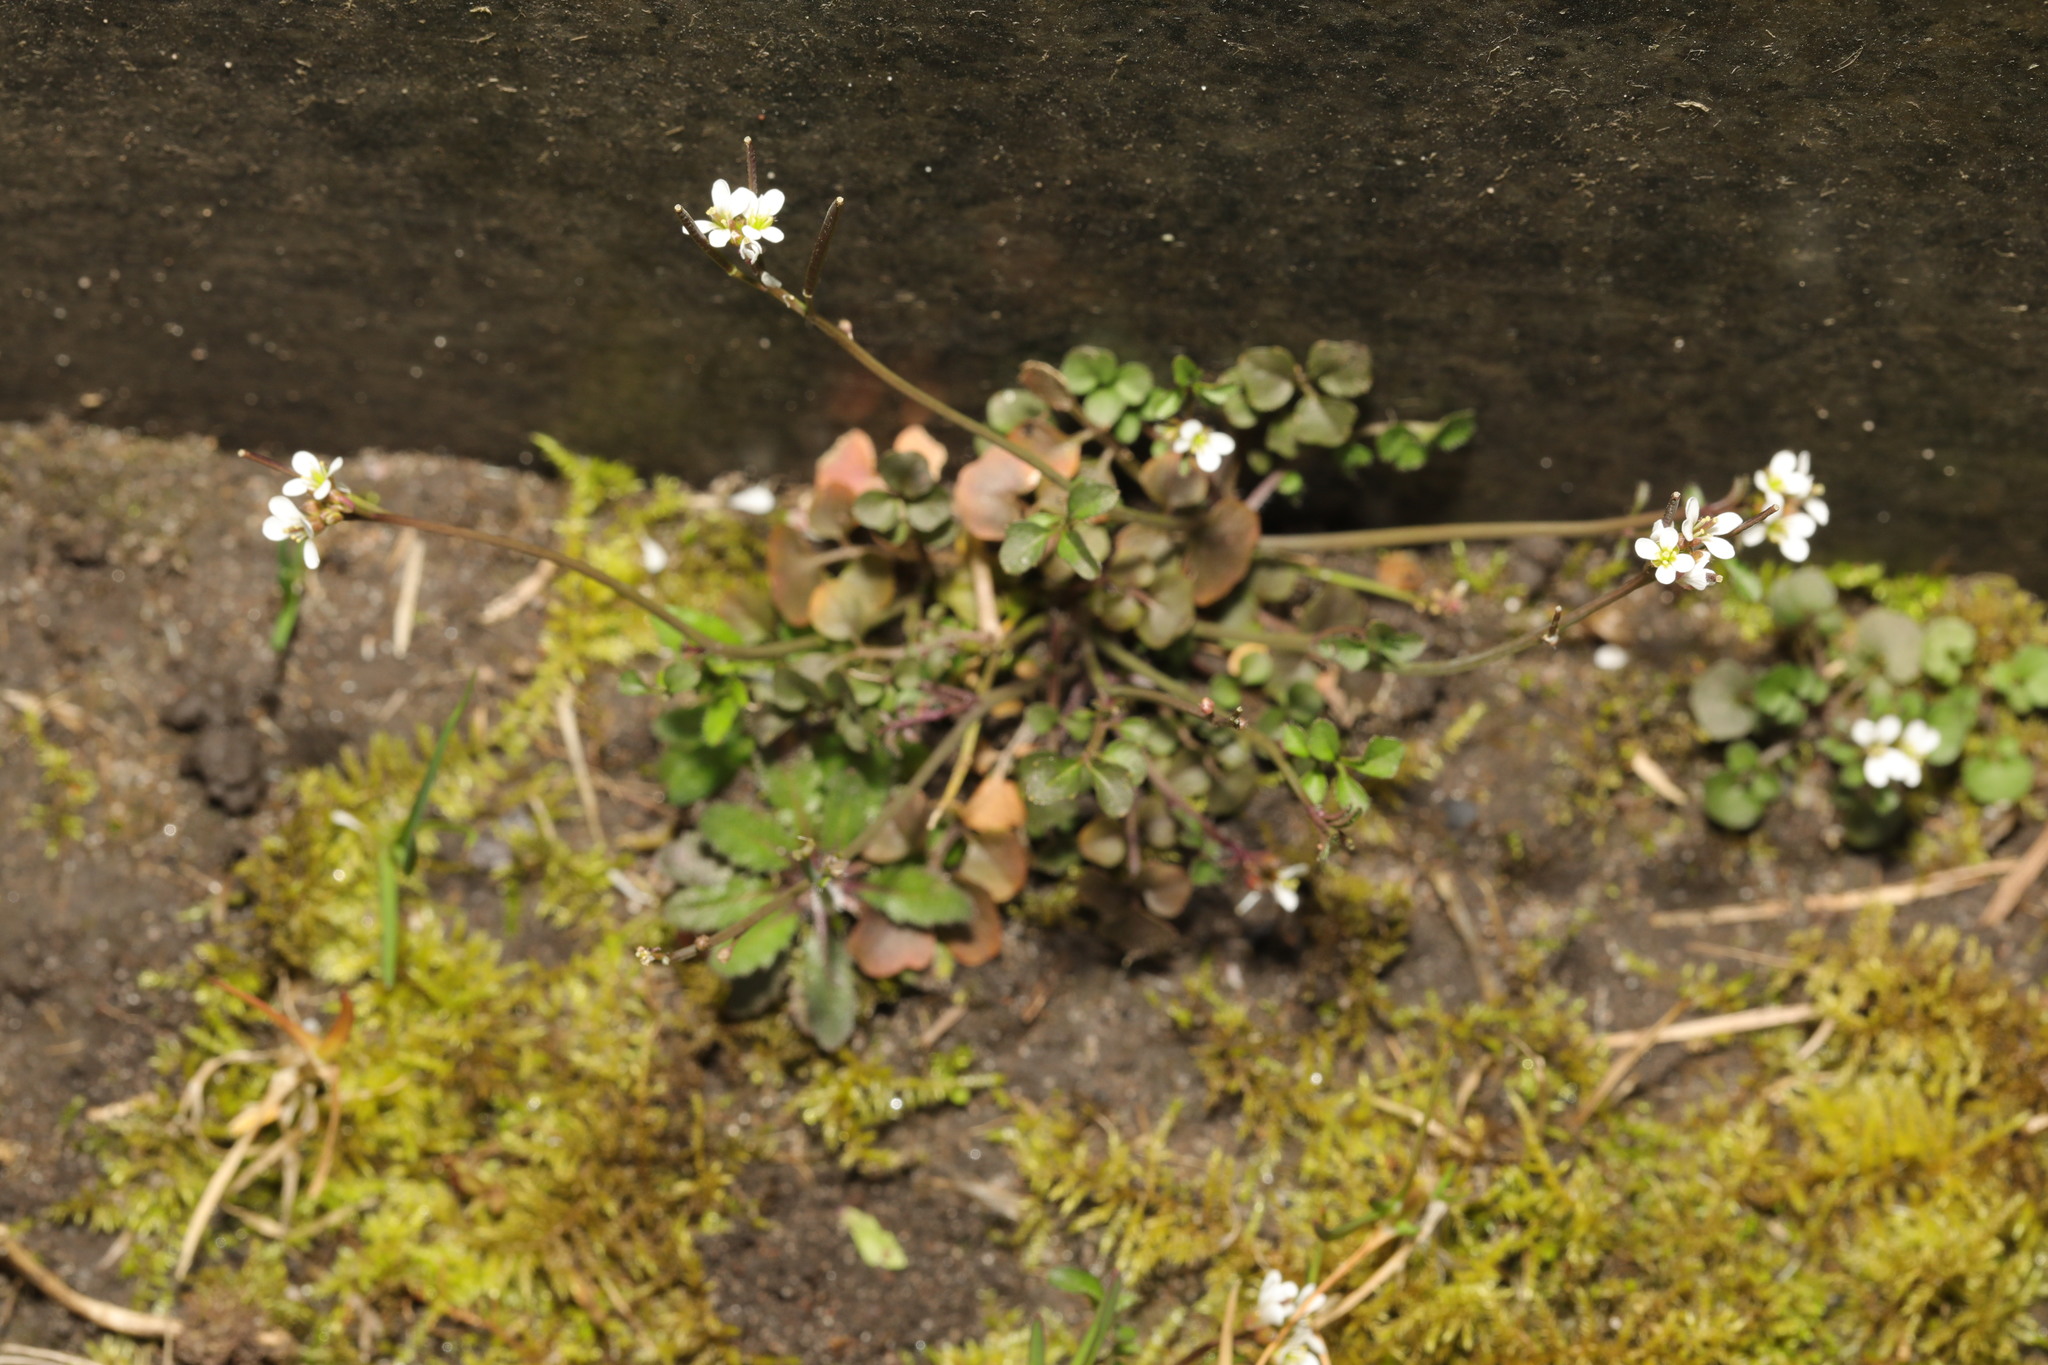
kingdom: Plantae
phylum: Tracheophyta
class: Magnoliopsida
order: Brassicales
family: Brassicaceae
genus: Cardamine
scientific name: Cardamine hirsuta
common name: Hairy bittercress
